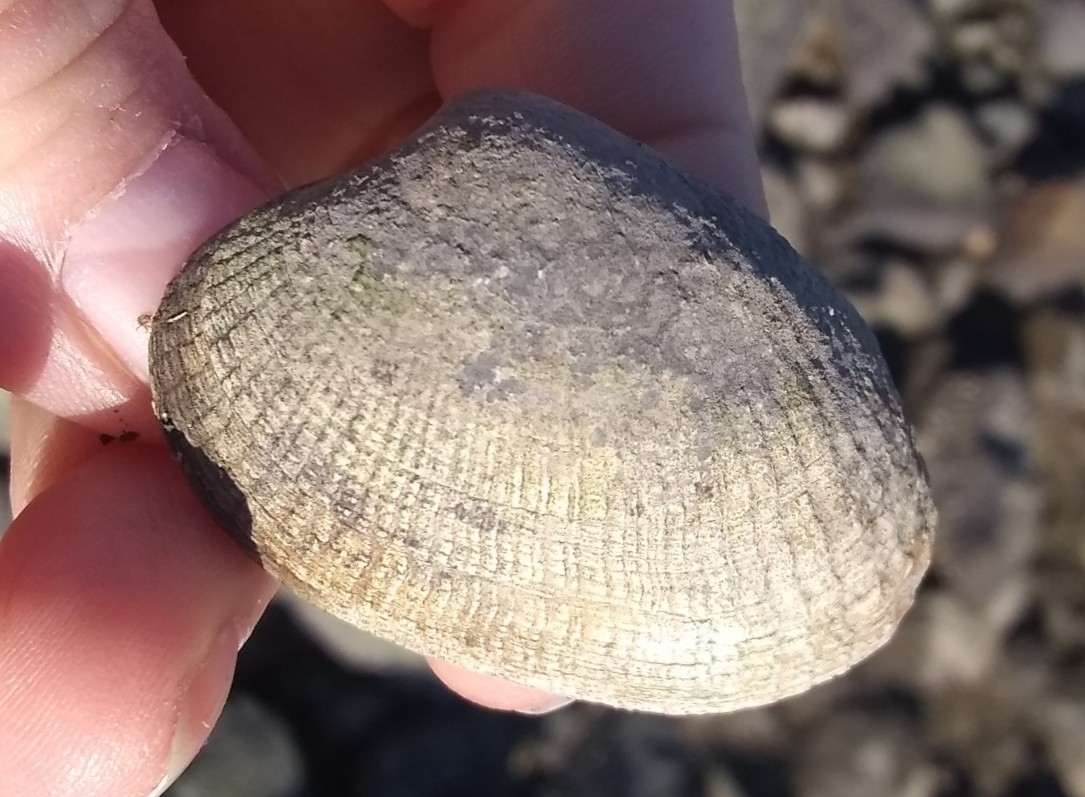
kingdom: Animalia
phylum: Mollusca
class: Bivalvia
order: Venerida
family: Veneridae
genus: Ruditapes
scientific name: Ruditapes philippinarum
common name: Manila clam
